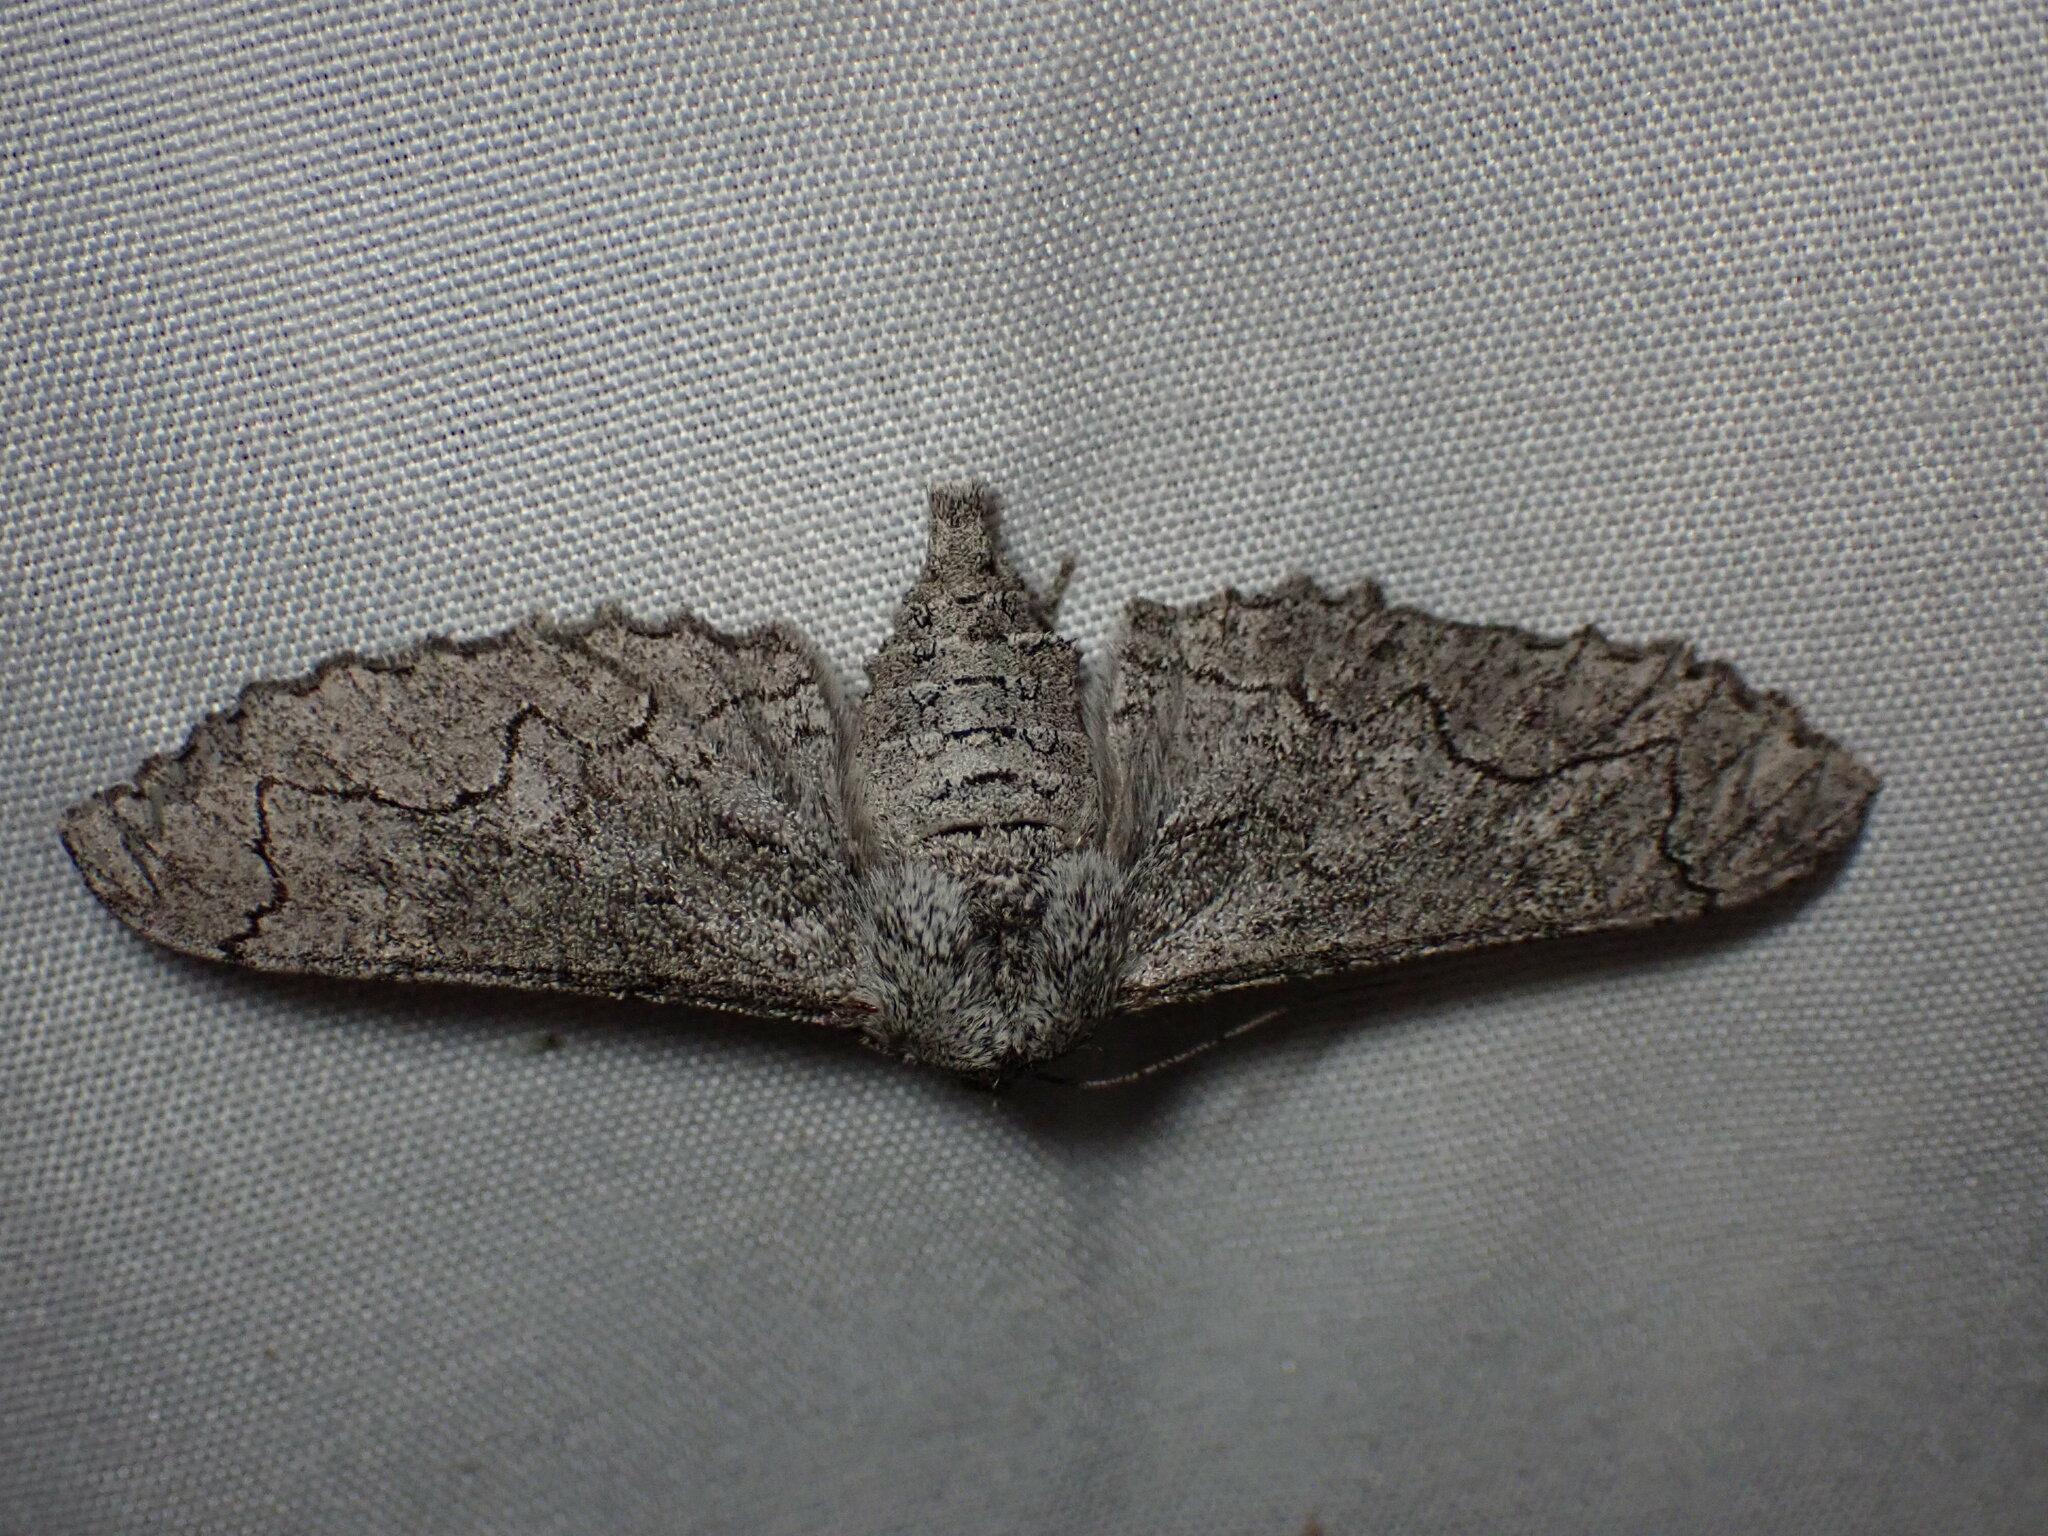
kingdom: Animalia
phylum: Arthropoda
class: Insecta
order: Lepidoptera
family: Geometridae
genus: Biston
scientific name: Biston sinuata
